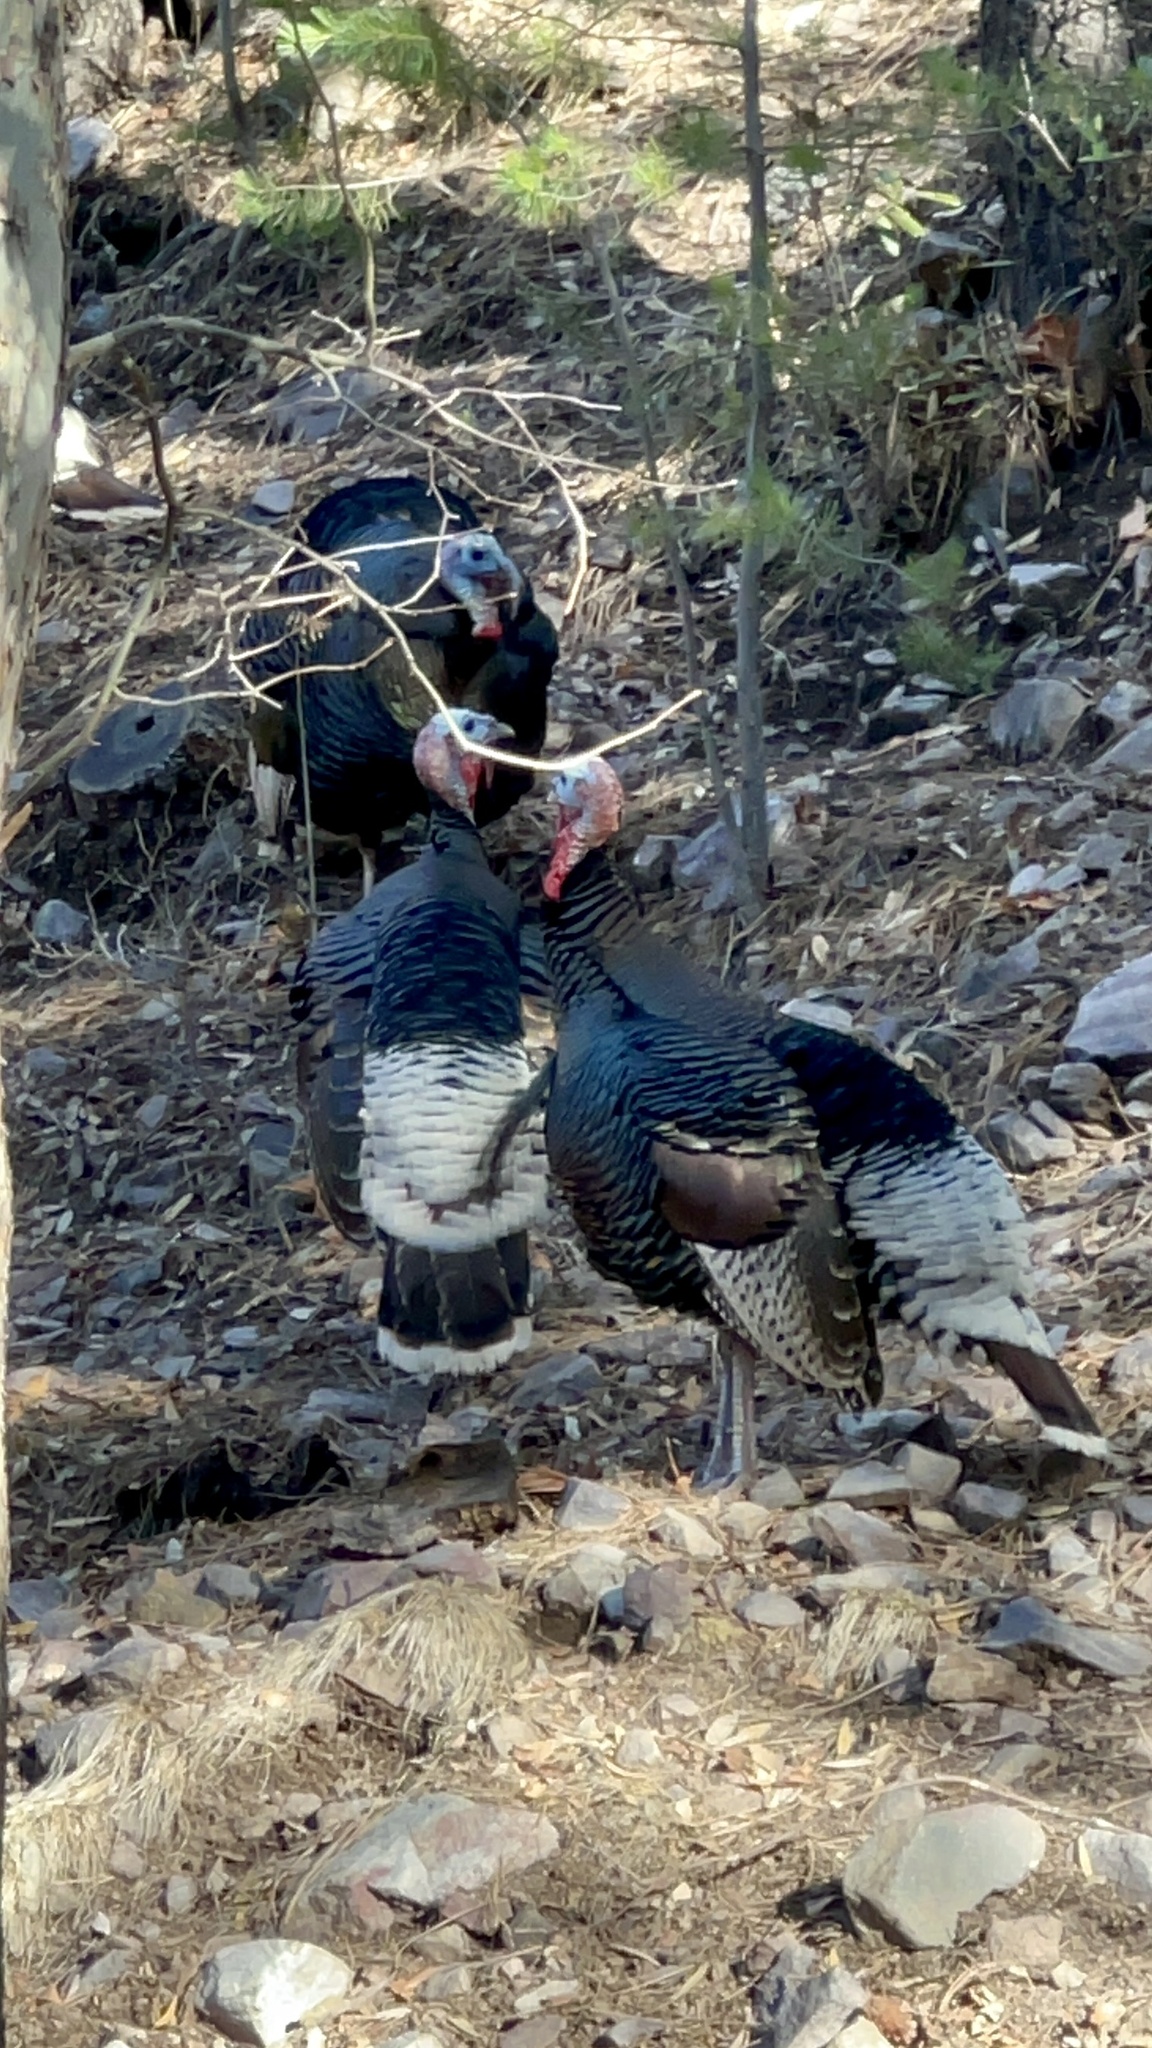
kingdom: Animalia
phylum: Chordata
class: Aves
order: Galliformes
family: Phasianidae
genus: Meleagris
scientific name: Meleagris gallopavo
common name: Wild turkey
